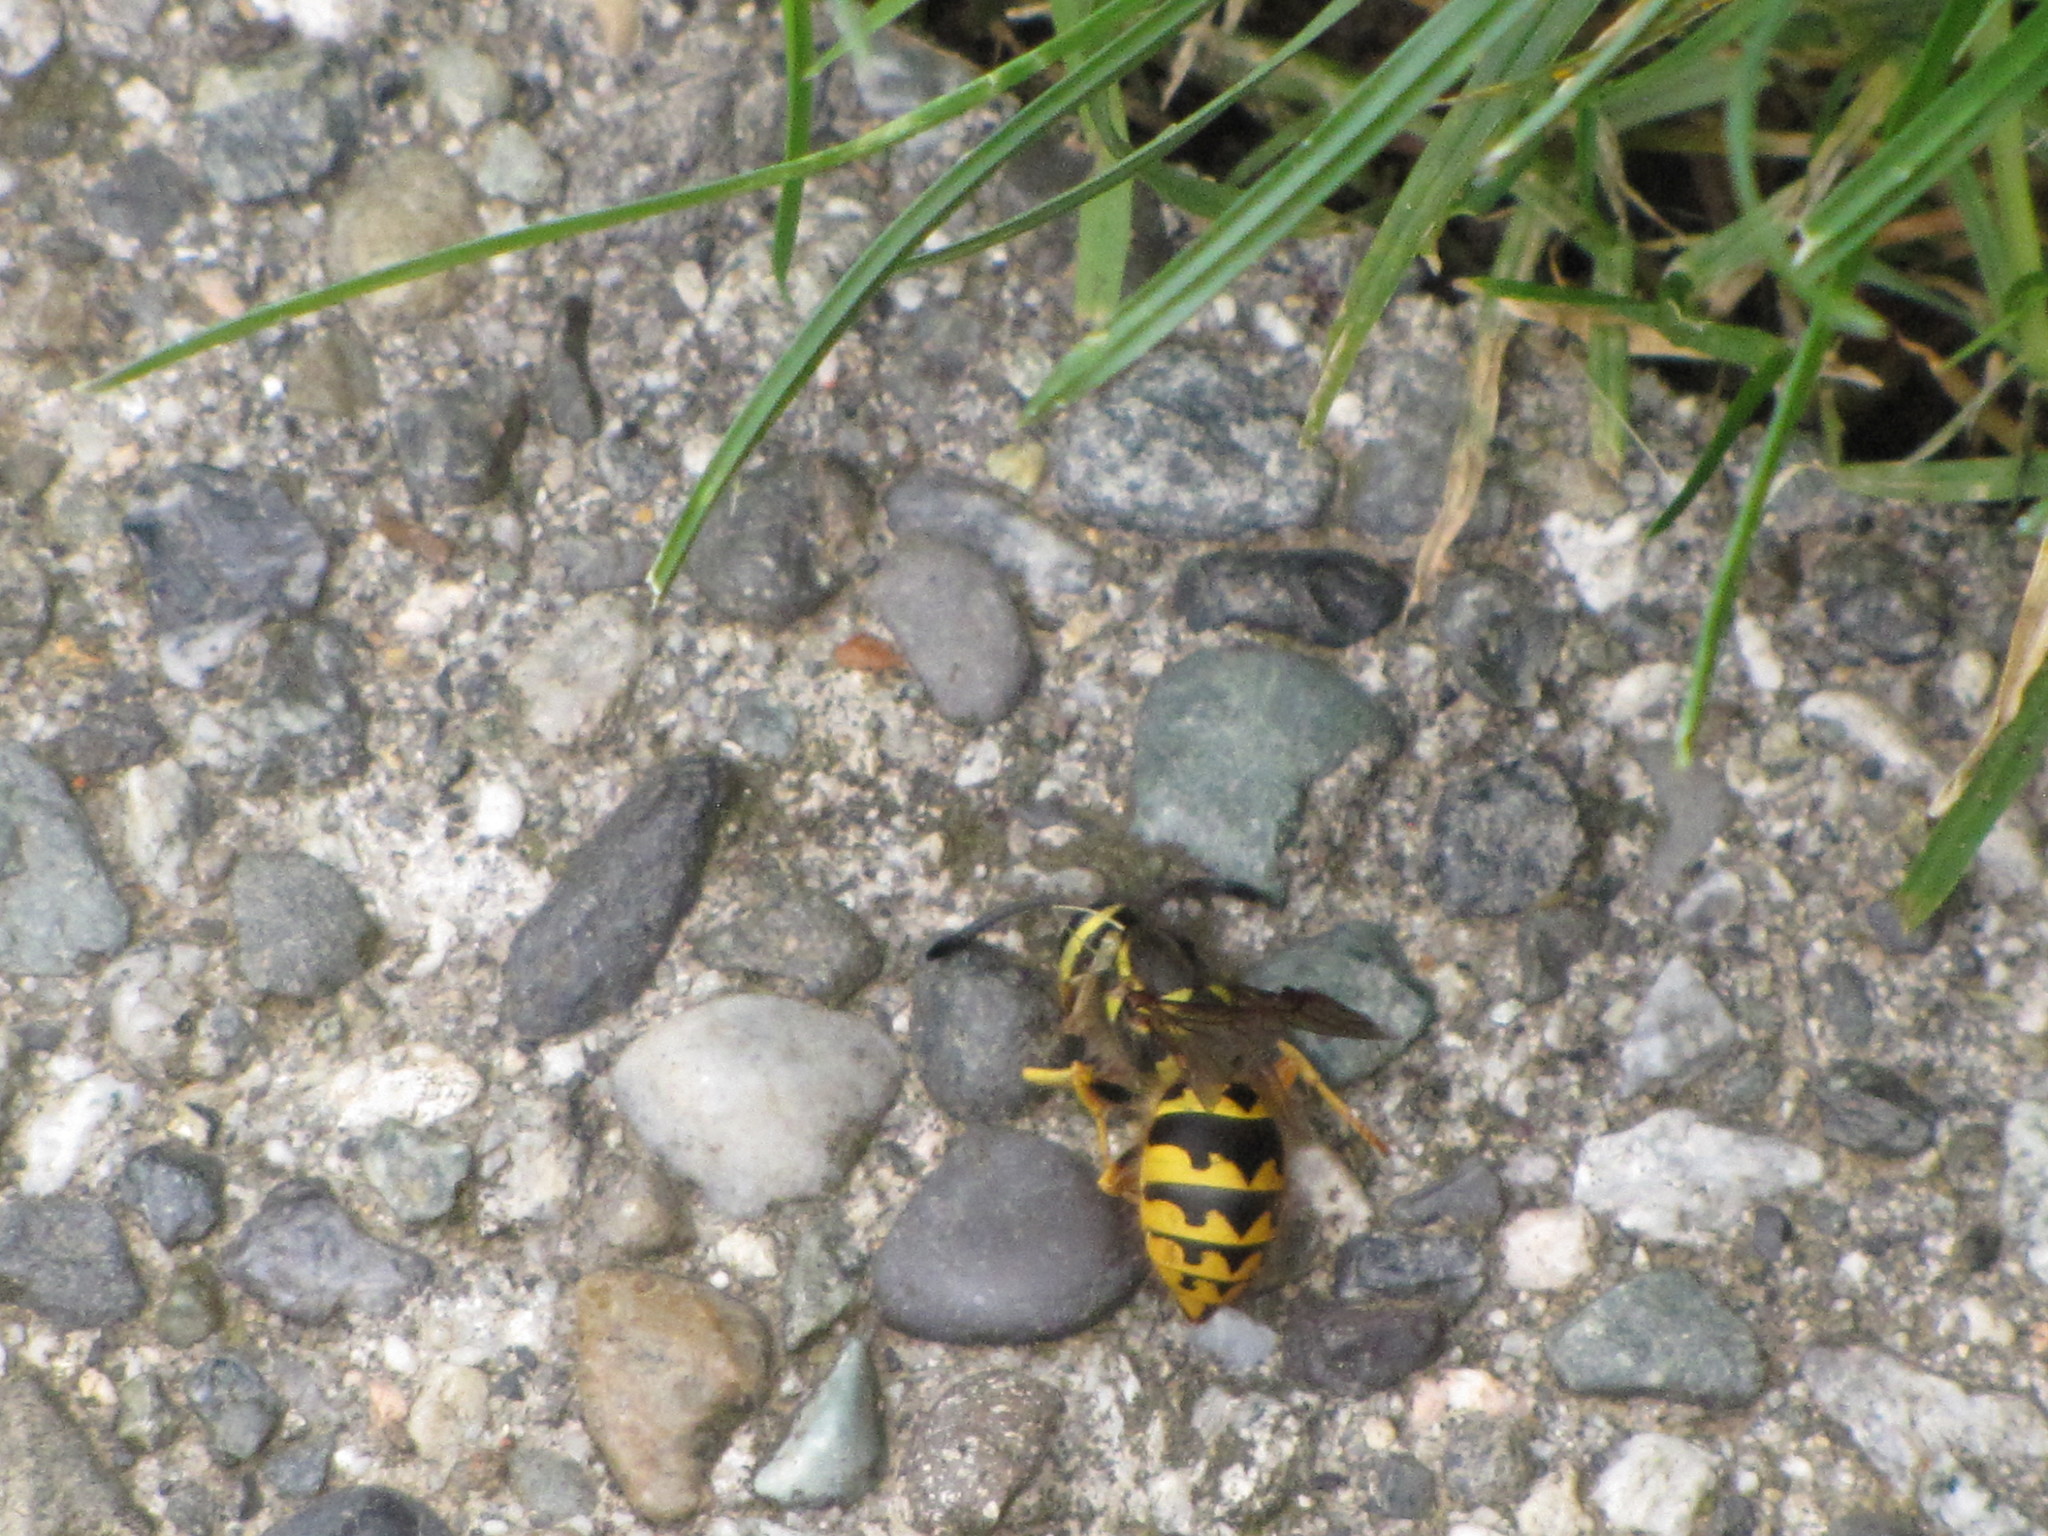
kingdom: Animalia
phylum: Arthropoda
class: Insecta
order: Hymenoptera
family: Vespidae
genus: Vespula
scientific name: Vespula pensylvanica
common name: Western yellowjacket
